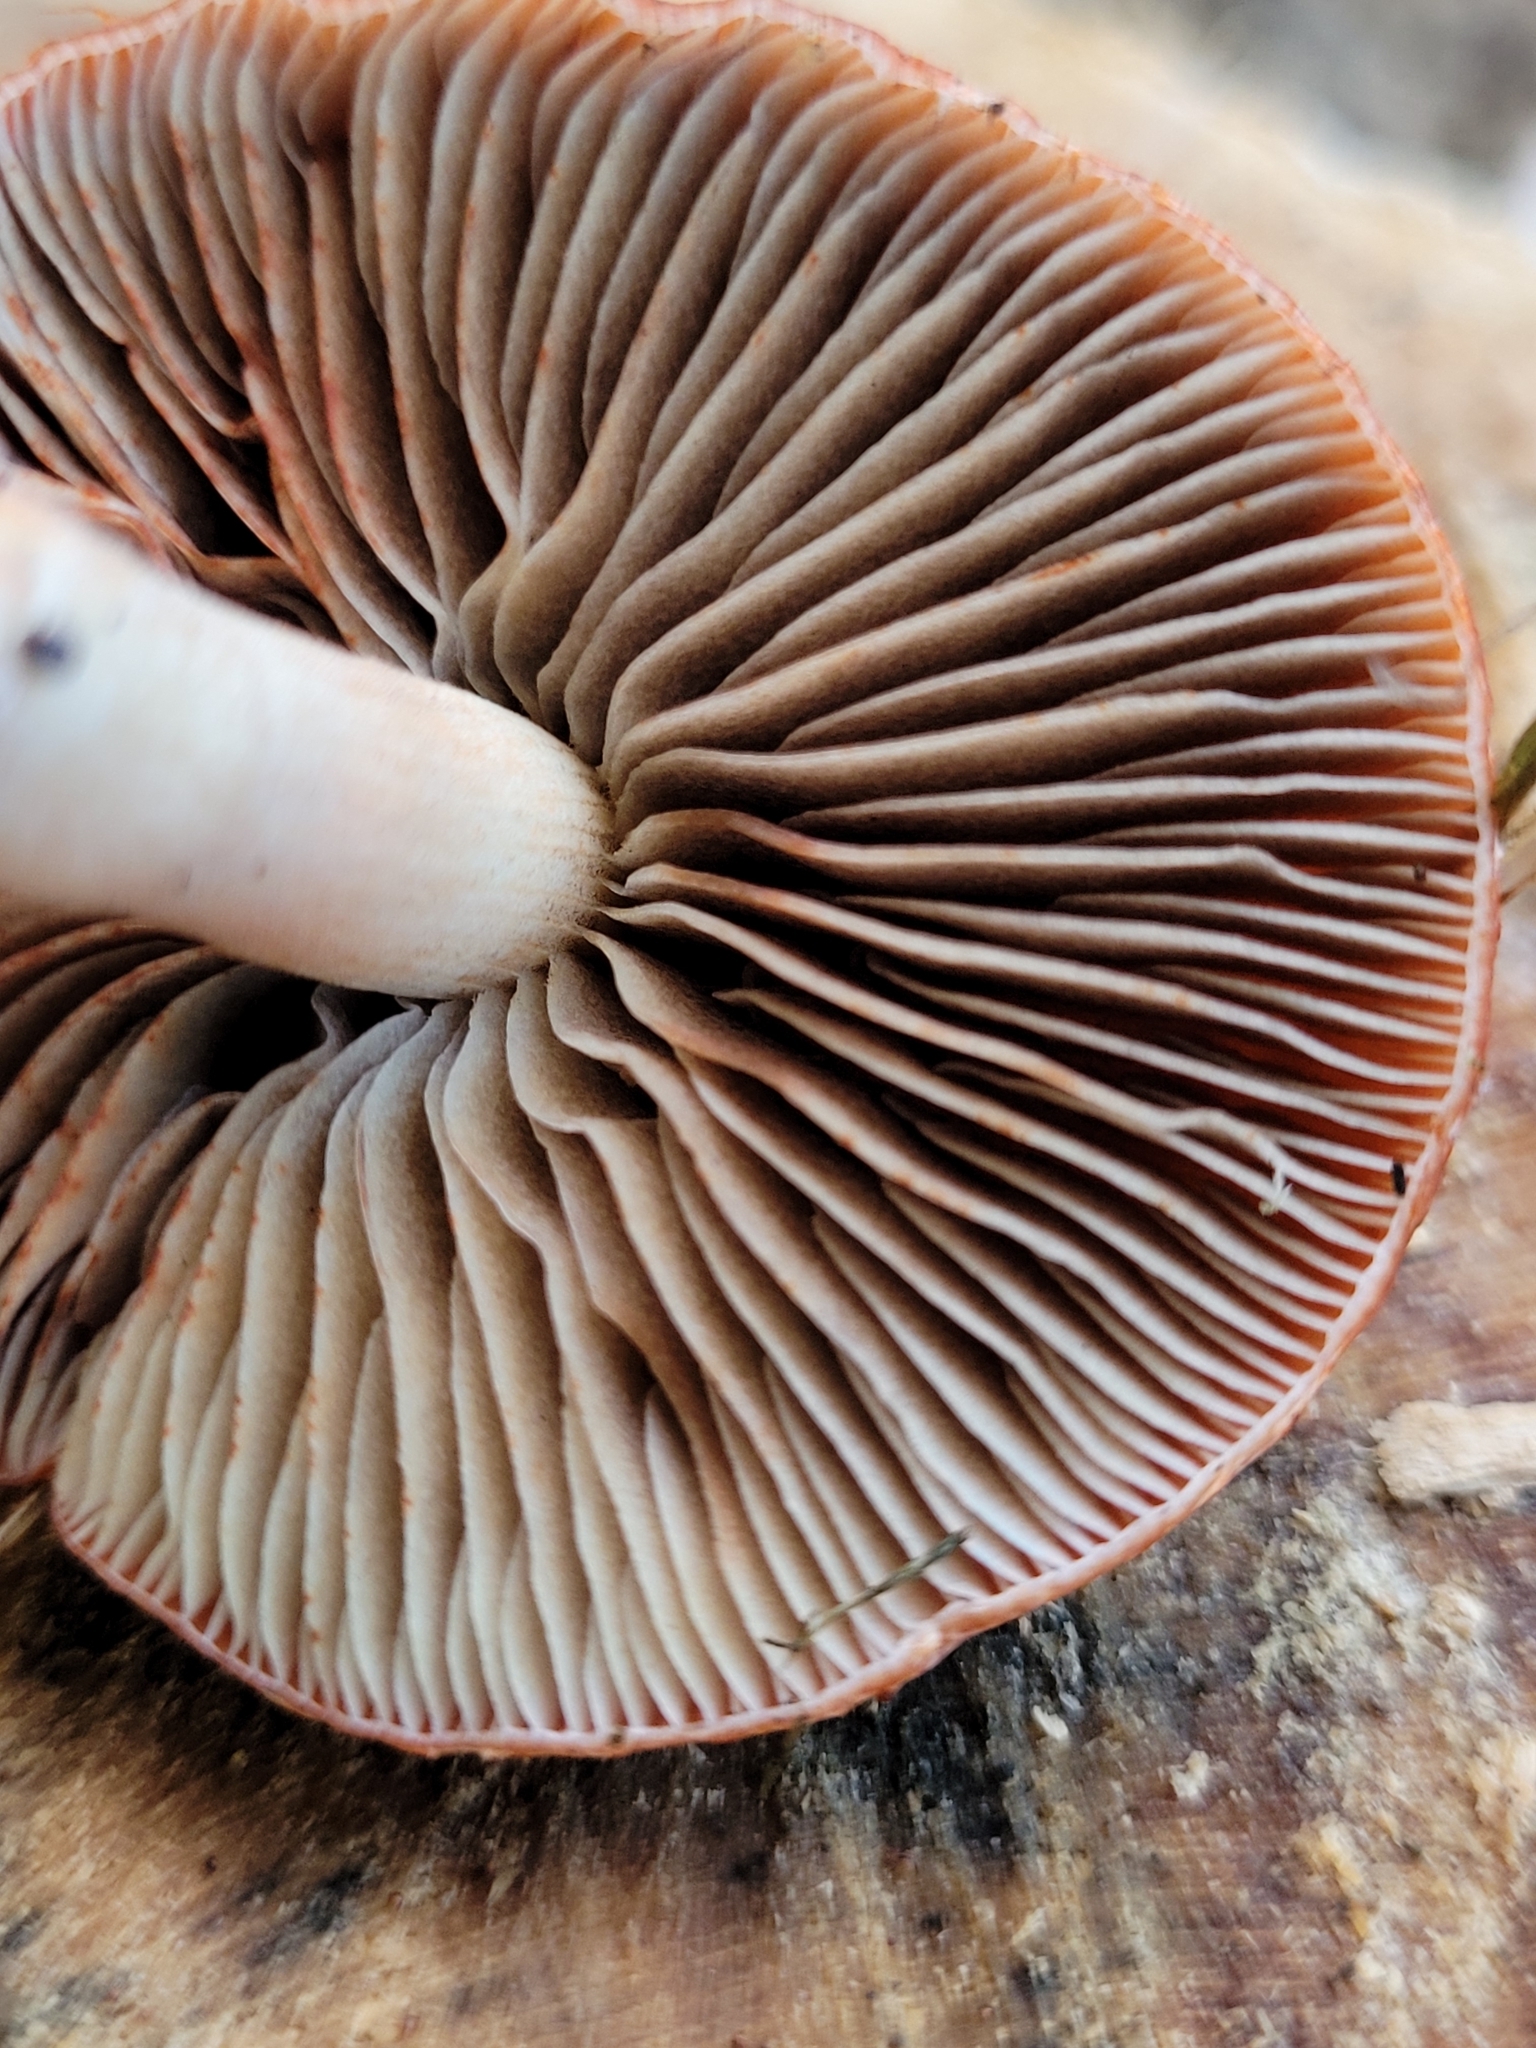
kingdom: Fungi
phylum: Basidiomycota
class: Agaricomycetes
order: Agaricales
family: Strophariaceae
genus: Leratiomyces
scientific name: Leratiomyces ceres
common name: Redlead roundhead
